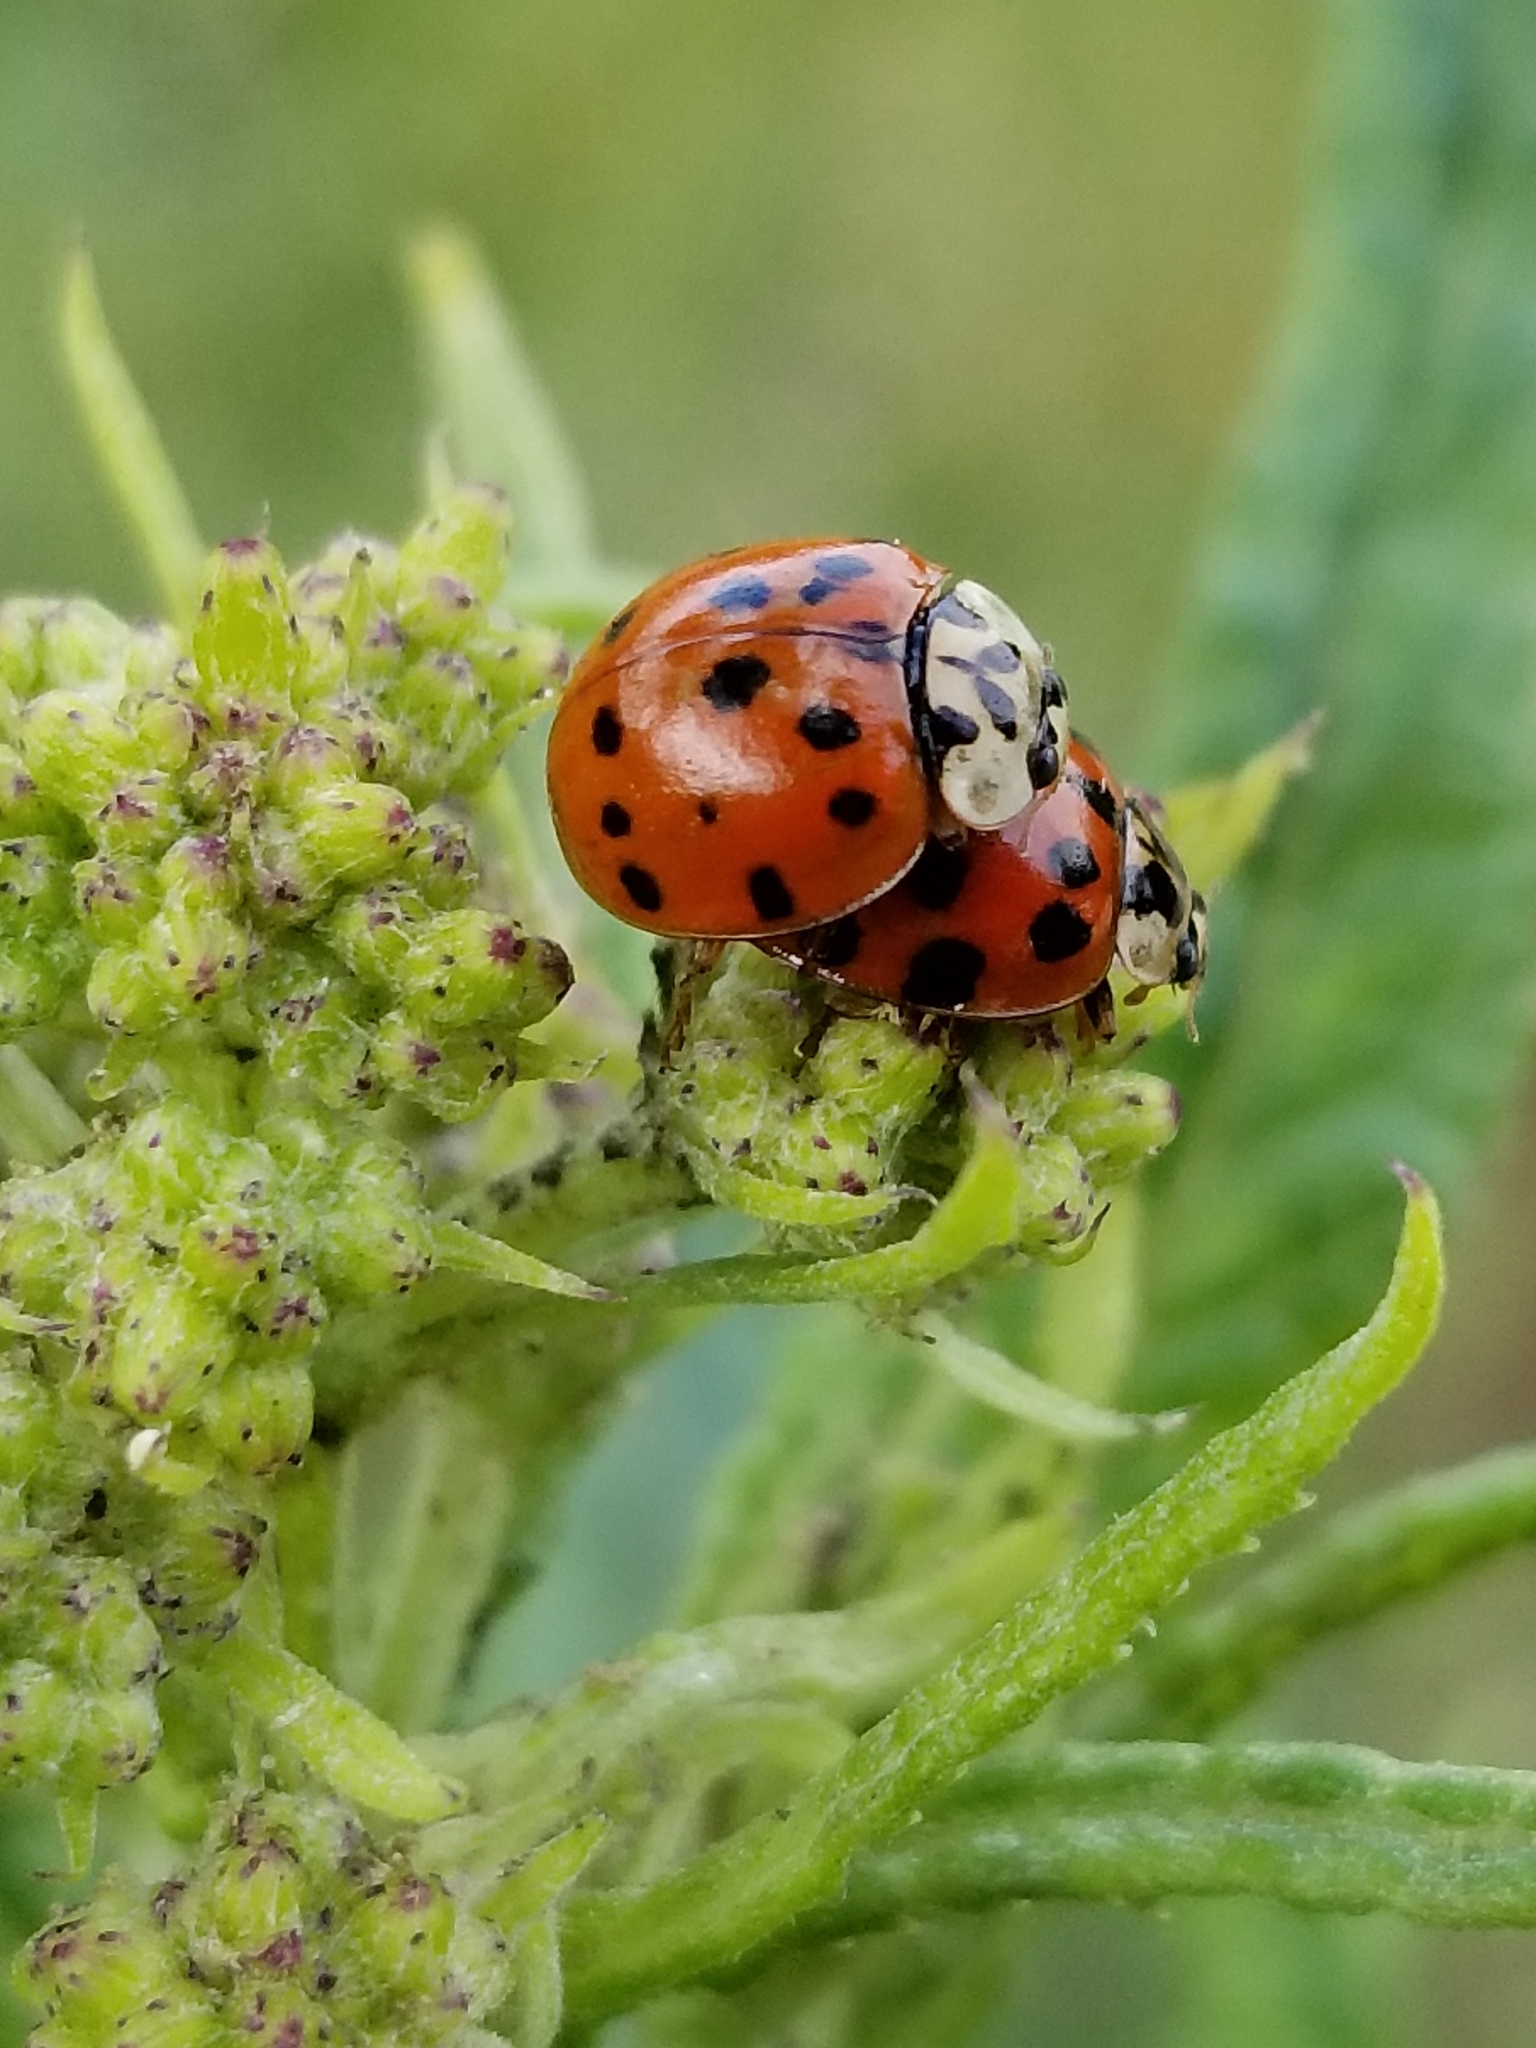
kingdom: Animalia
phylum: Arthropoda
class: Insecta
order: Coleoptera
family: Coccinellidae
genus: Harmonia
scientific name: Harmonia axyridis
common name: Harlequin ladybird
